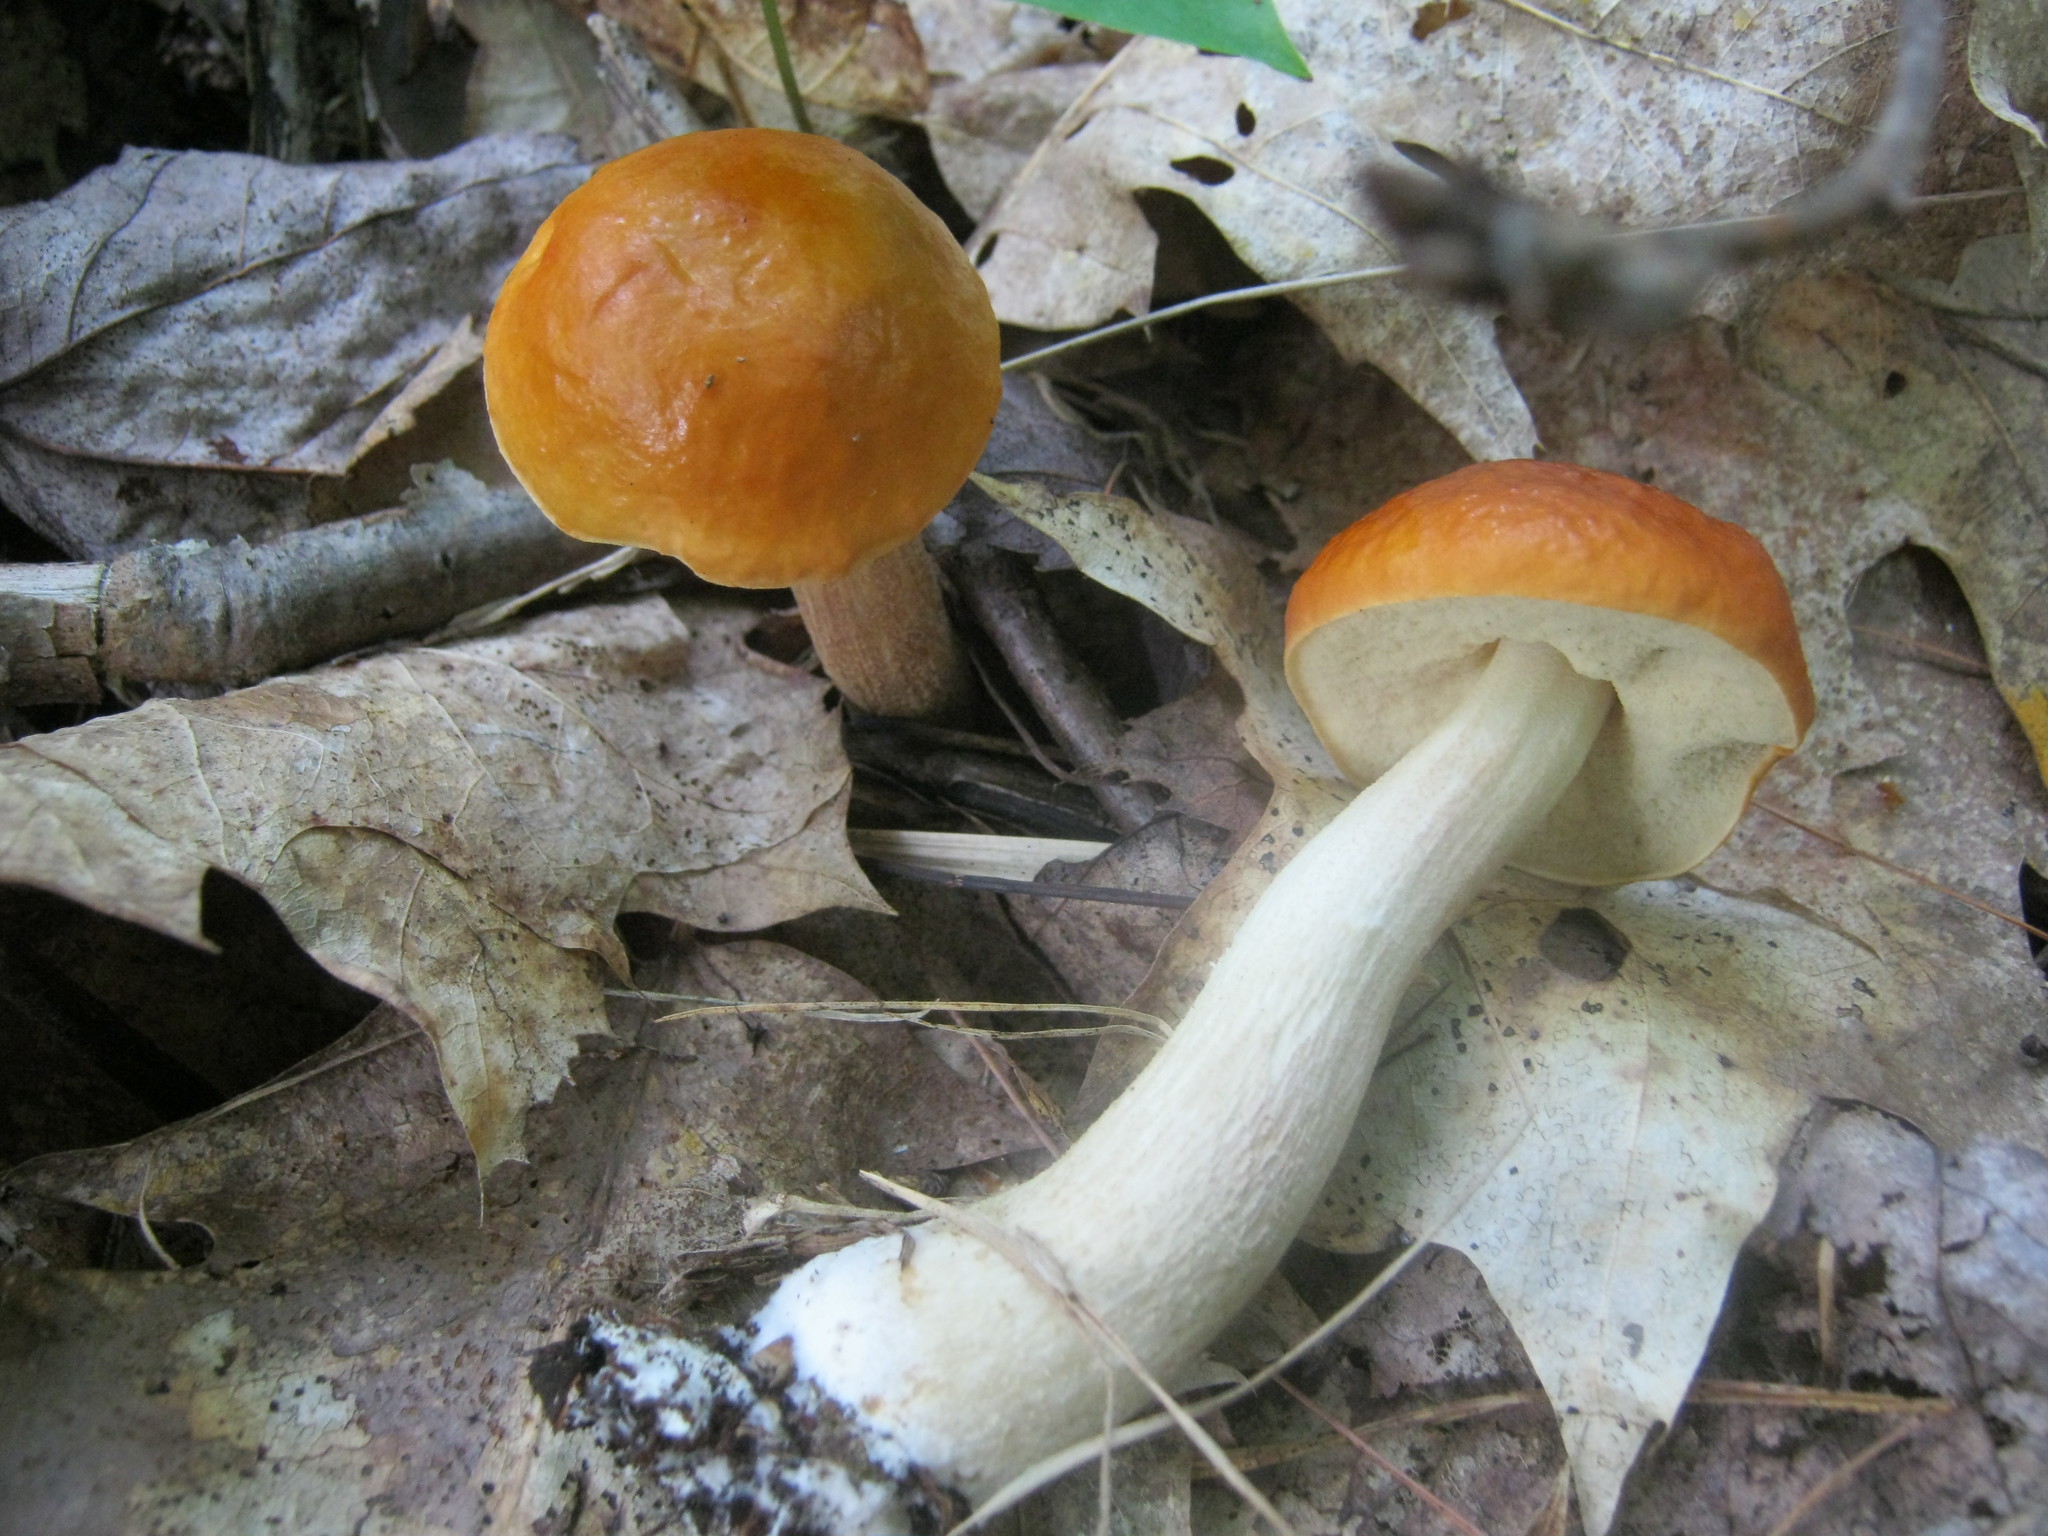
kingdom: Fungi
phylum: Basidiomycota
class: Agaricomycetes
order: Boletales
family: Boletaceae
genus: Leccinum
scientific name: Leccinum longicurvipes
